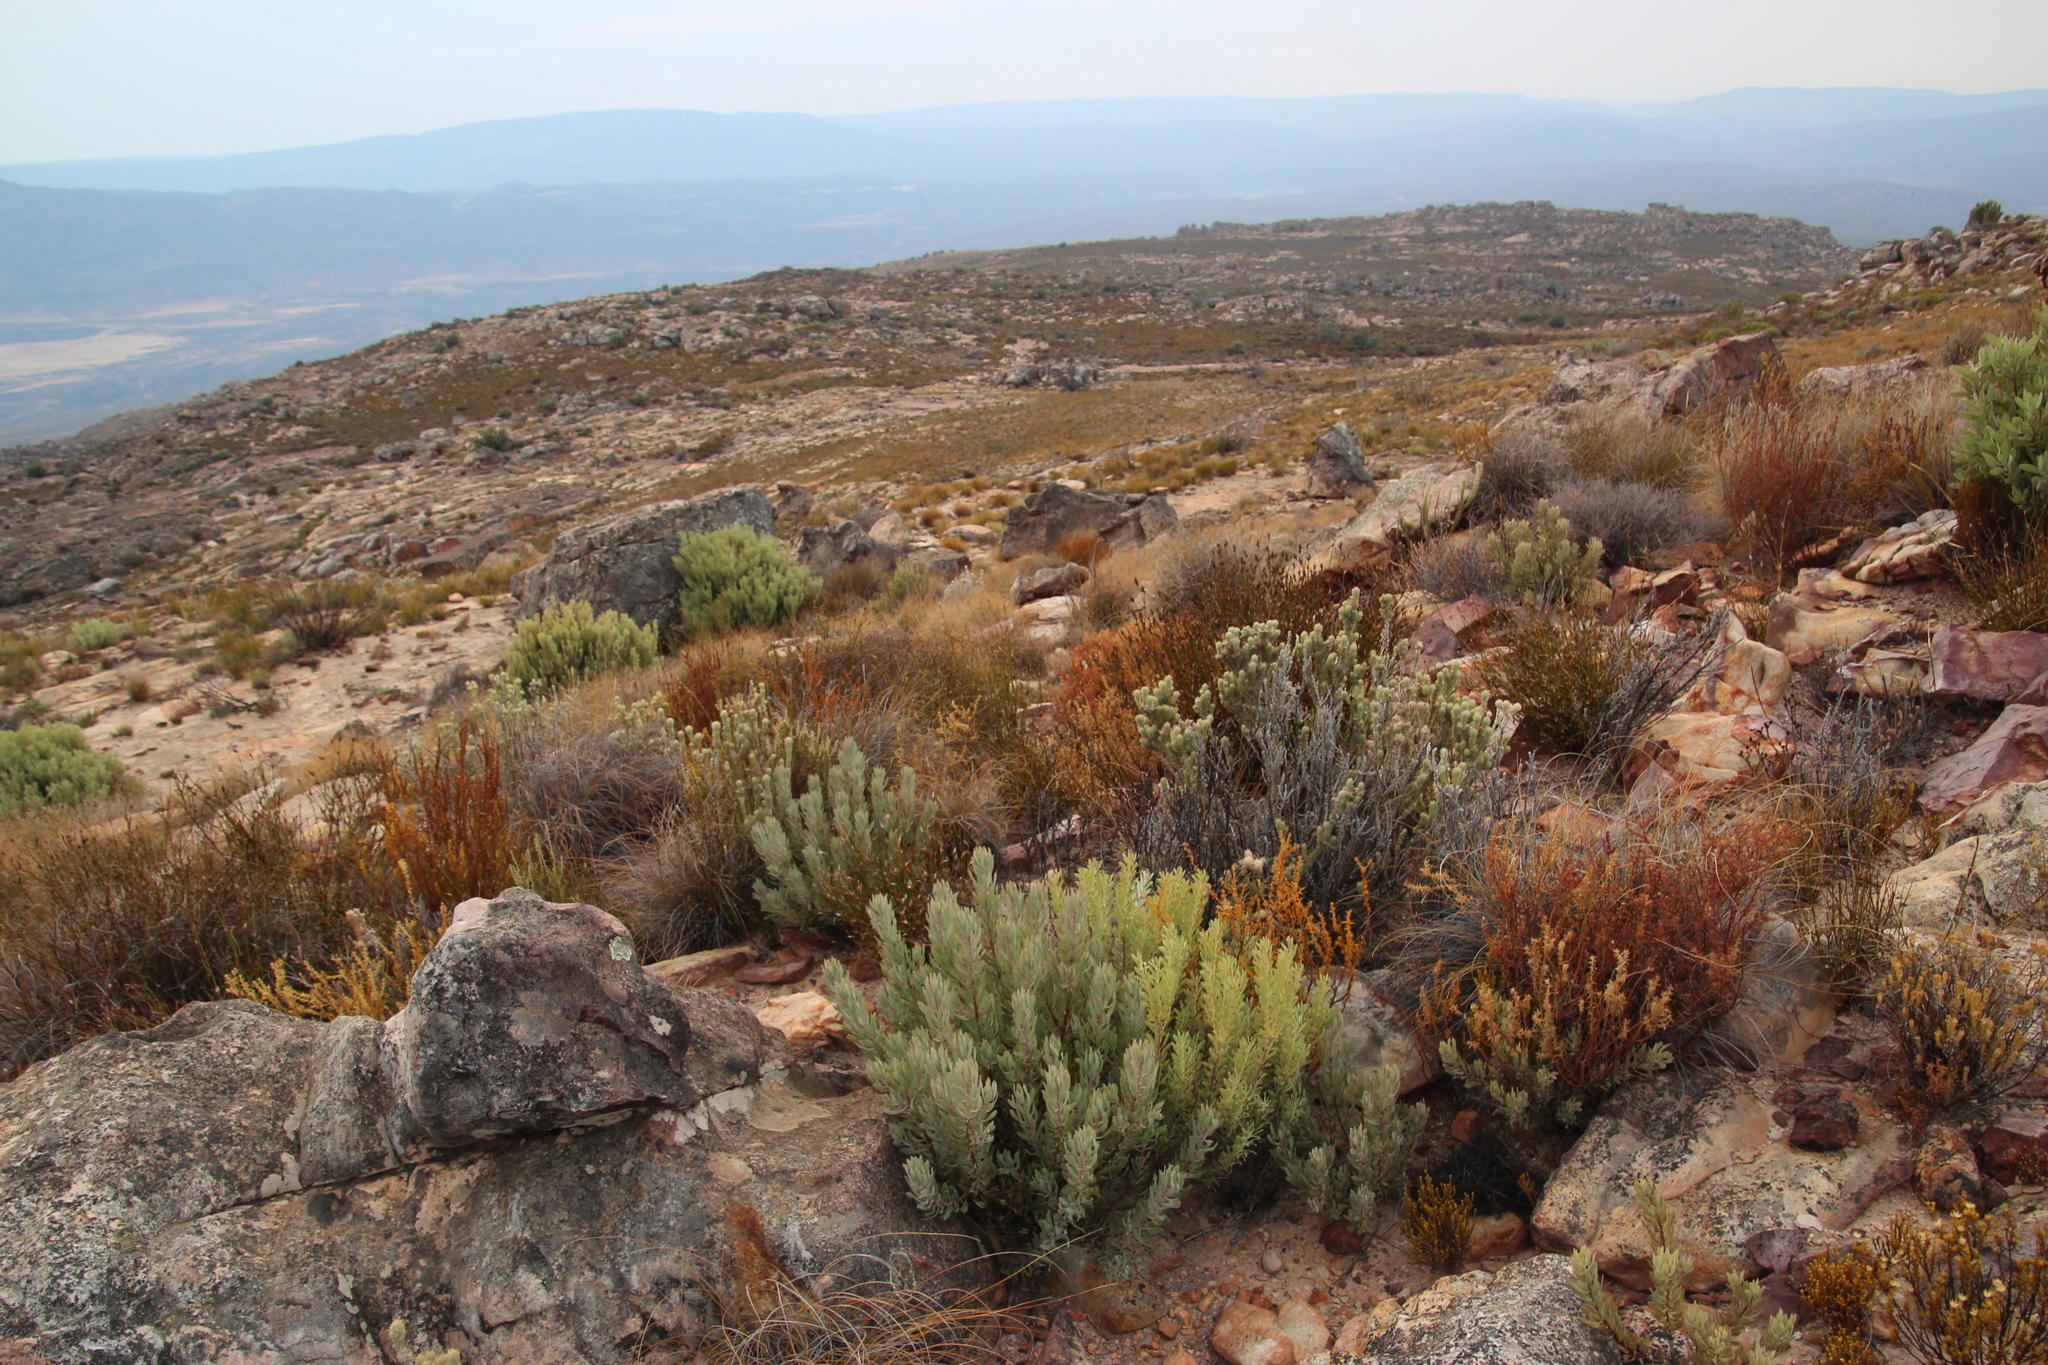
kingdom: Plantae
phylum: Tracheophyta
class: Magnoliopsida
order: Proteales
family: Proteaceae
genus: Protea
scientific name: Protea pendula
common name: Nodding sugarbush
